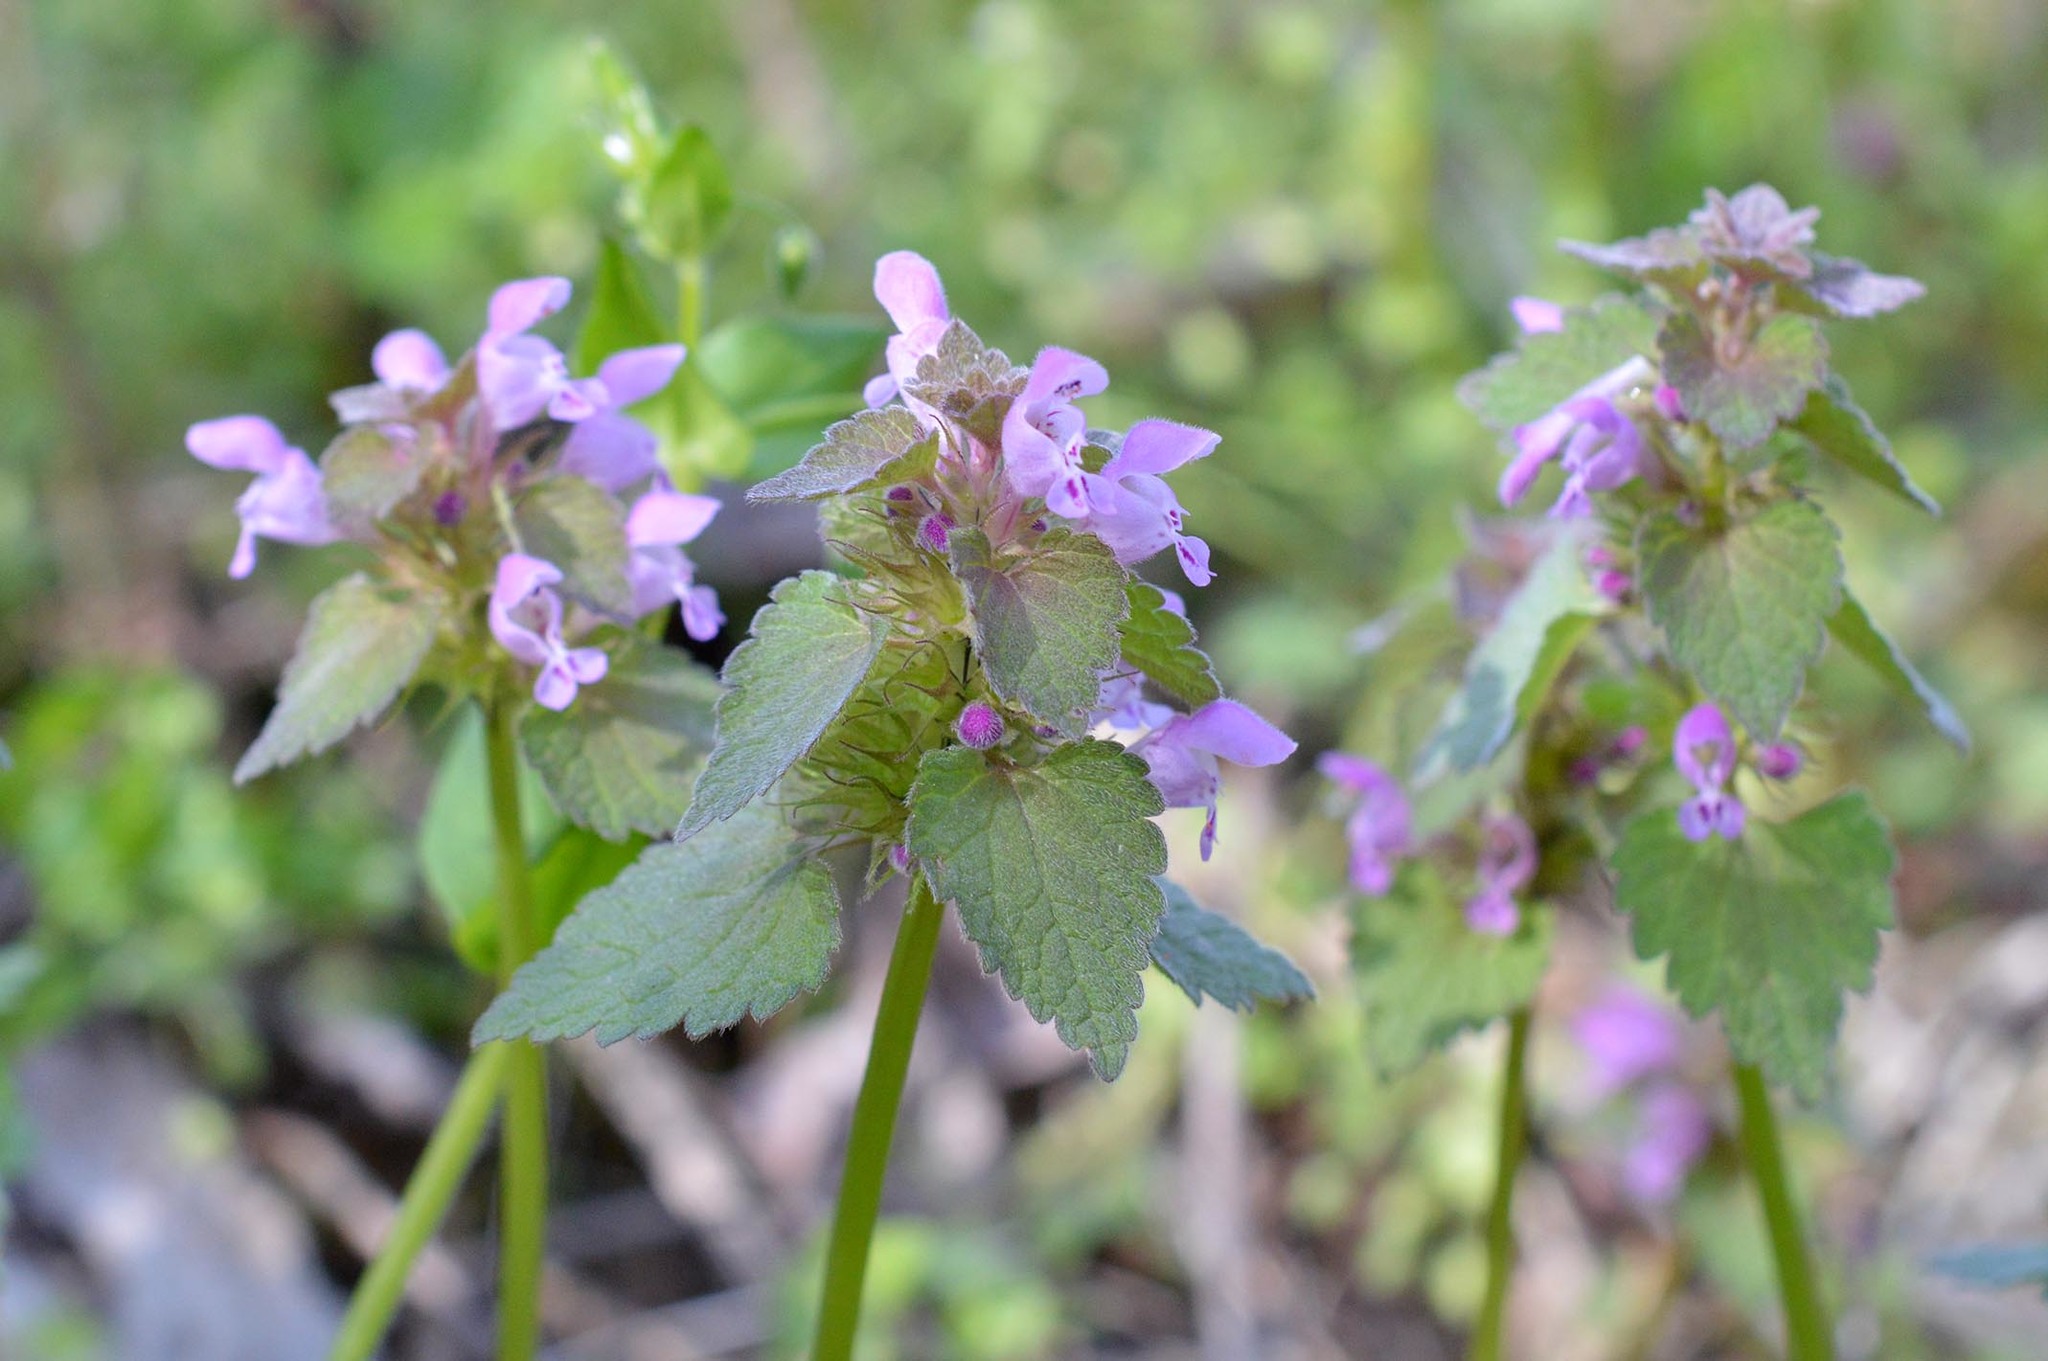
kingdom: Plantae
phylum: Tracheophyta
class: Magnoliopsida
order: Lamiales
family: Lamiaceae
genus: Lamium
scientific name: Lamium purpureum
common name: Red dead-nettle
